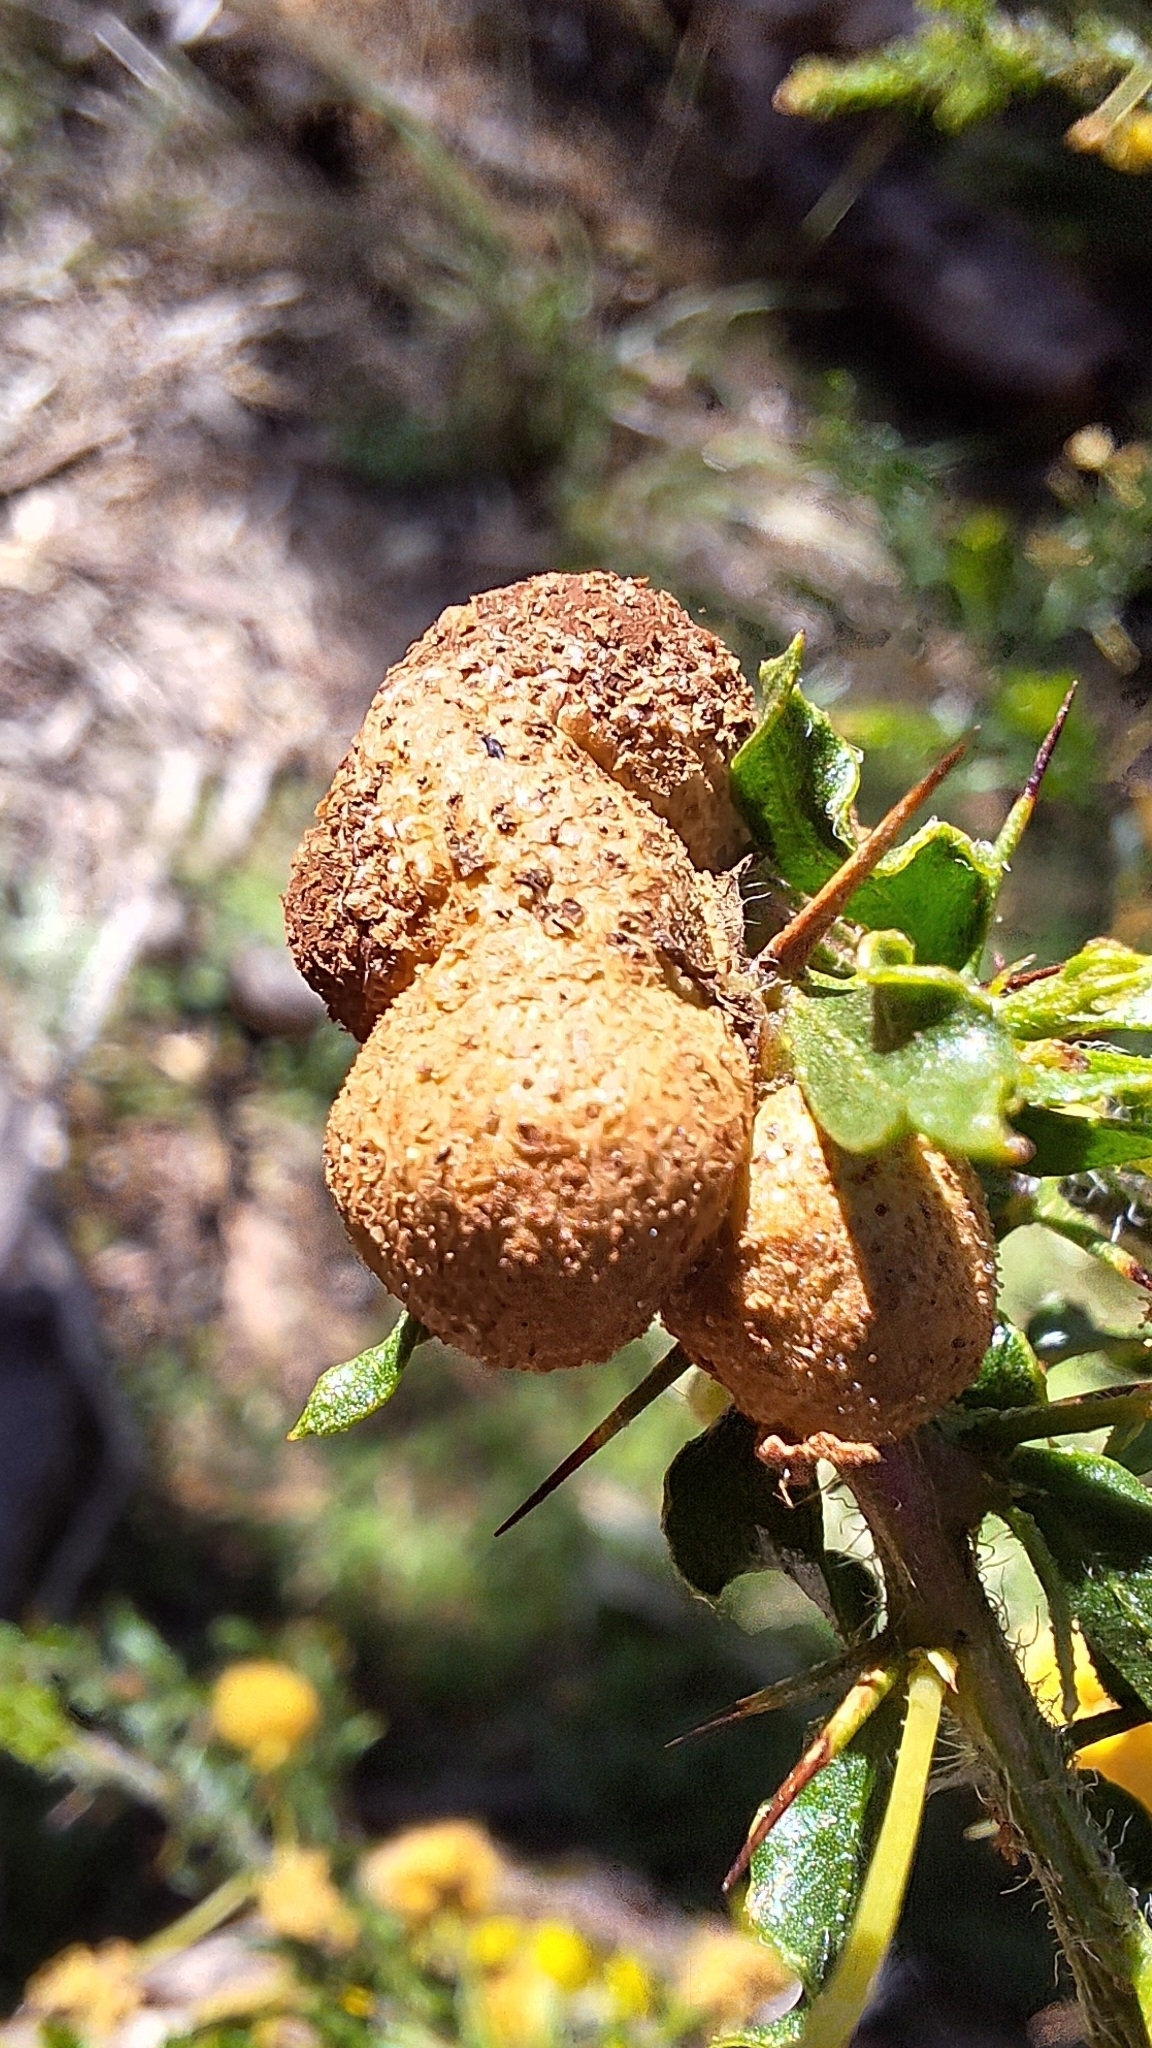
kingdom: Fungi
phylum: Basidiomycota
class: Pucciniomycetes
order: Pucciniales
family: Uromycladiaceae
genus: Uromycladium
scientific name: Uromycladium paradoxae
